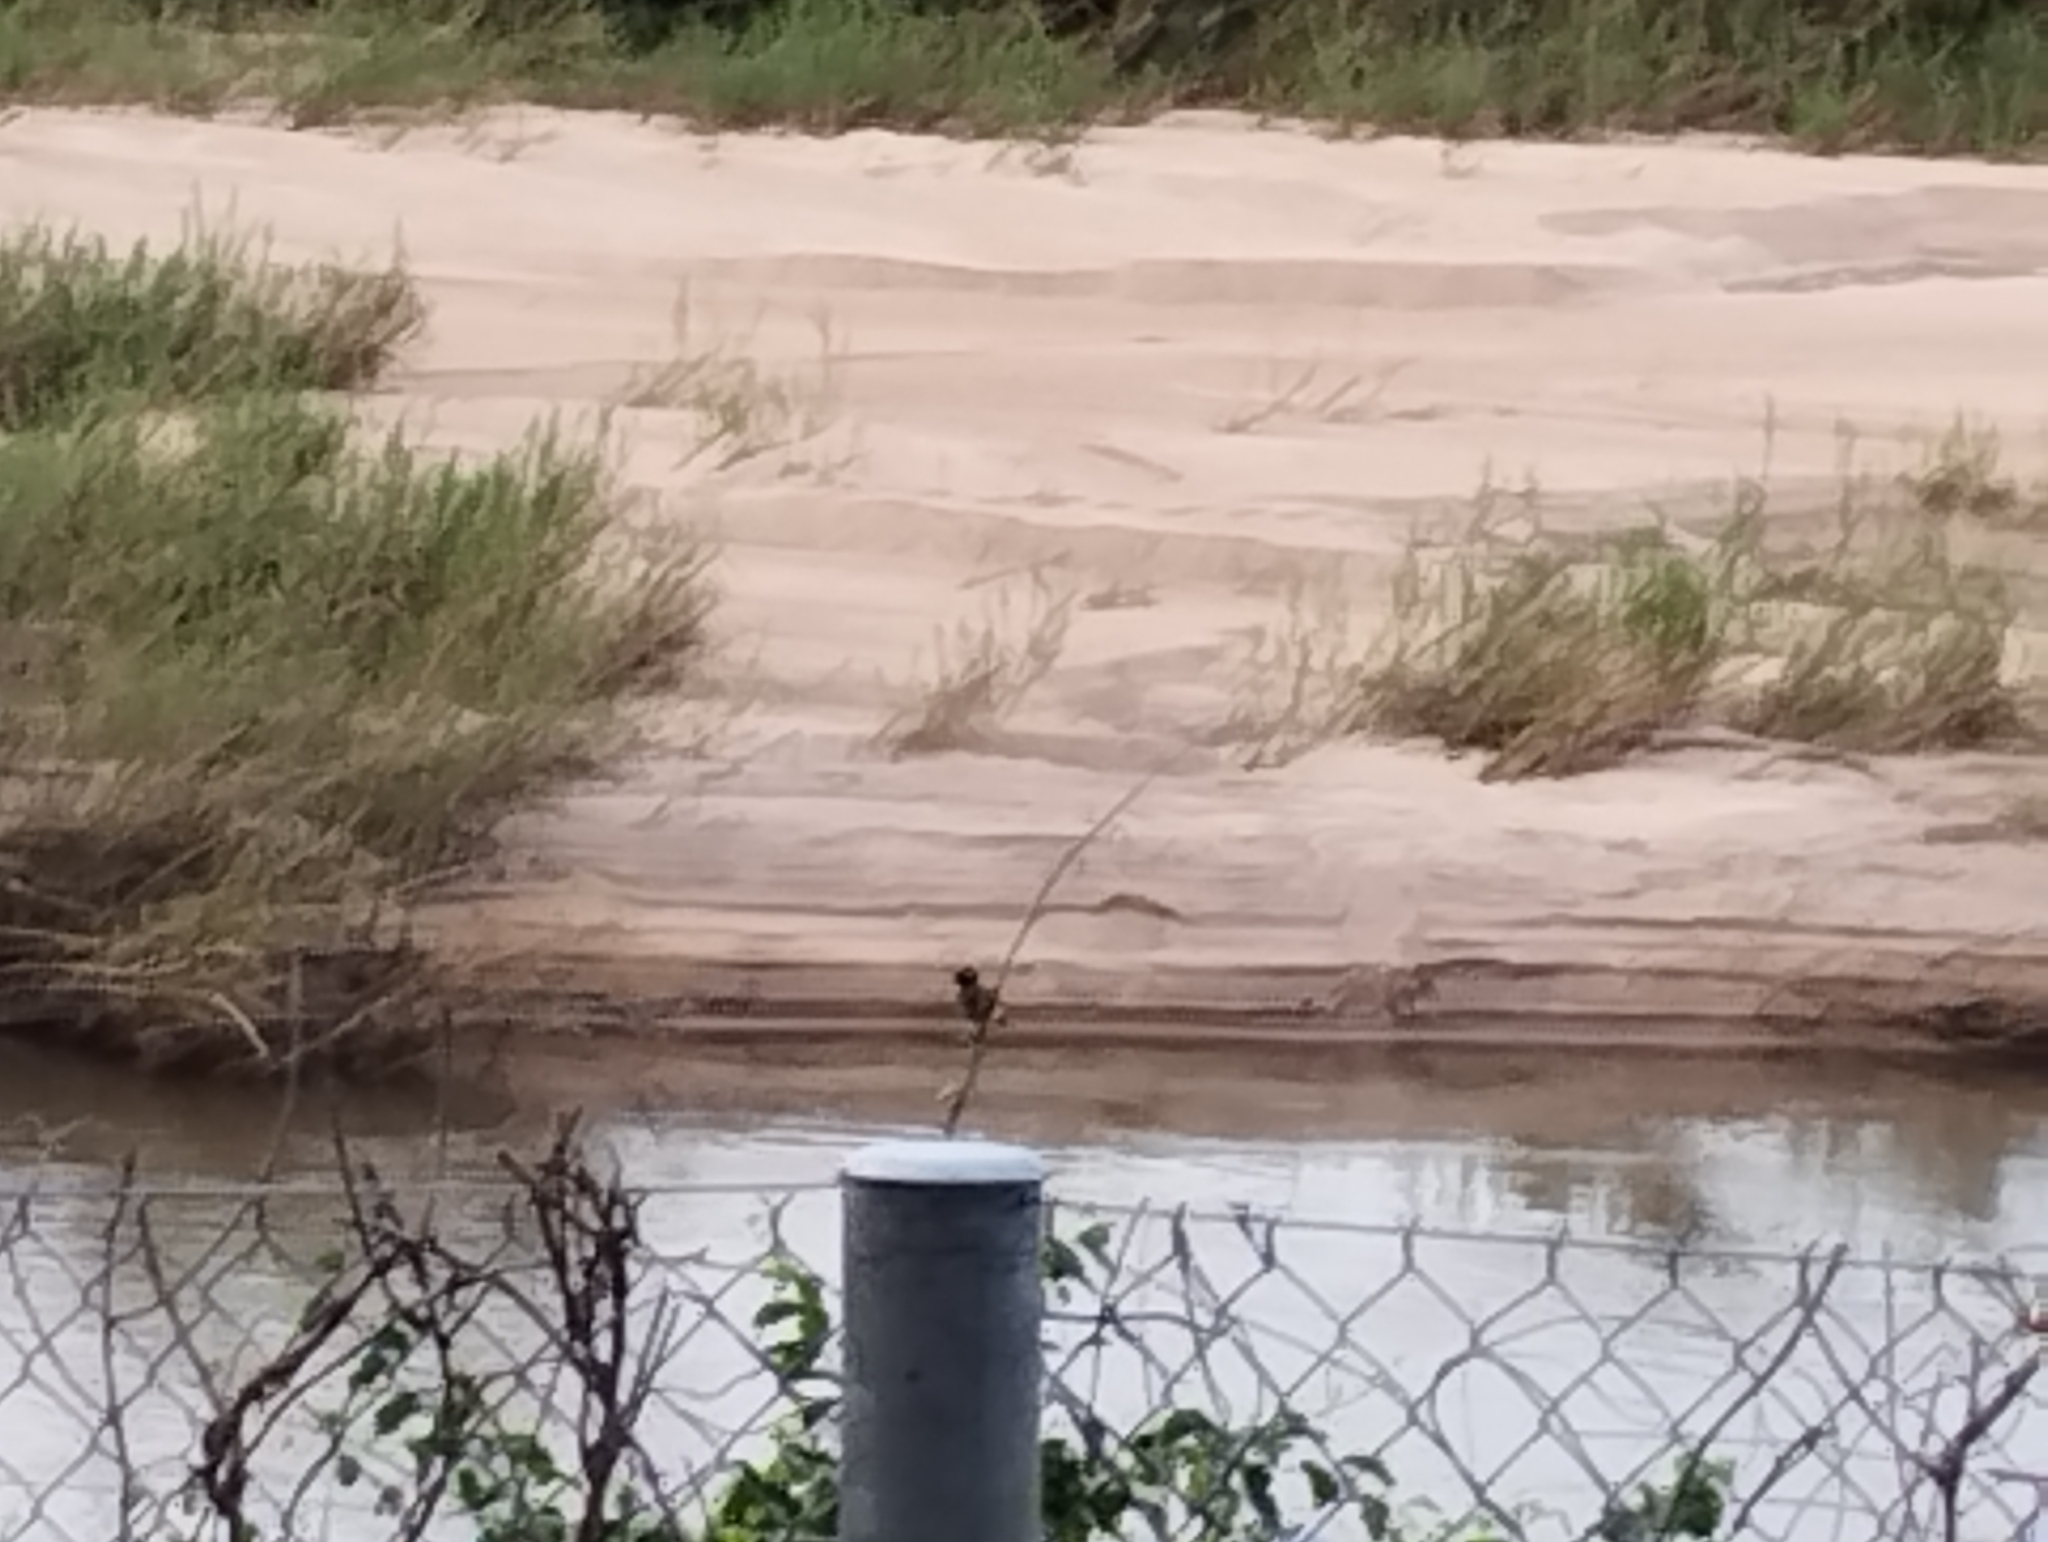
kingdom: Animalia
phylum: Chordata
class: Aves
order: Passeriformes
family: Pycnonotidae
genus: Pycnonotus
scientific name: Pycnonotus barbatus
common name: Common bulbul
